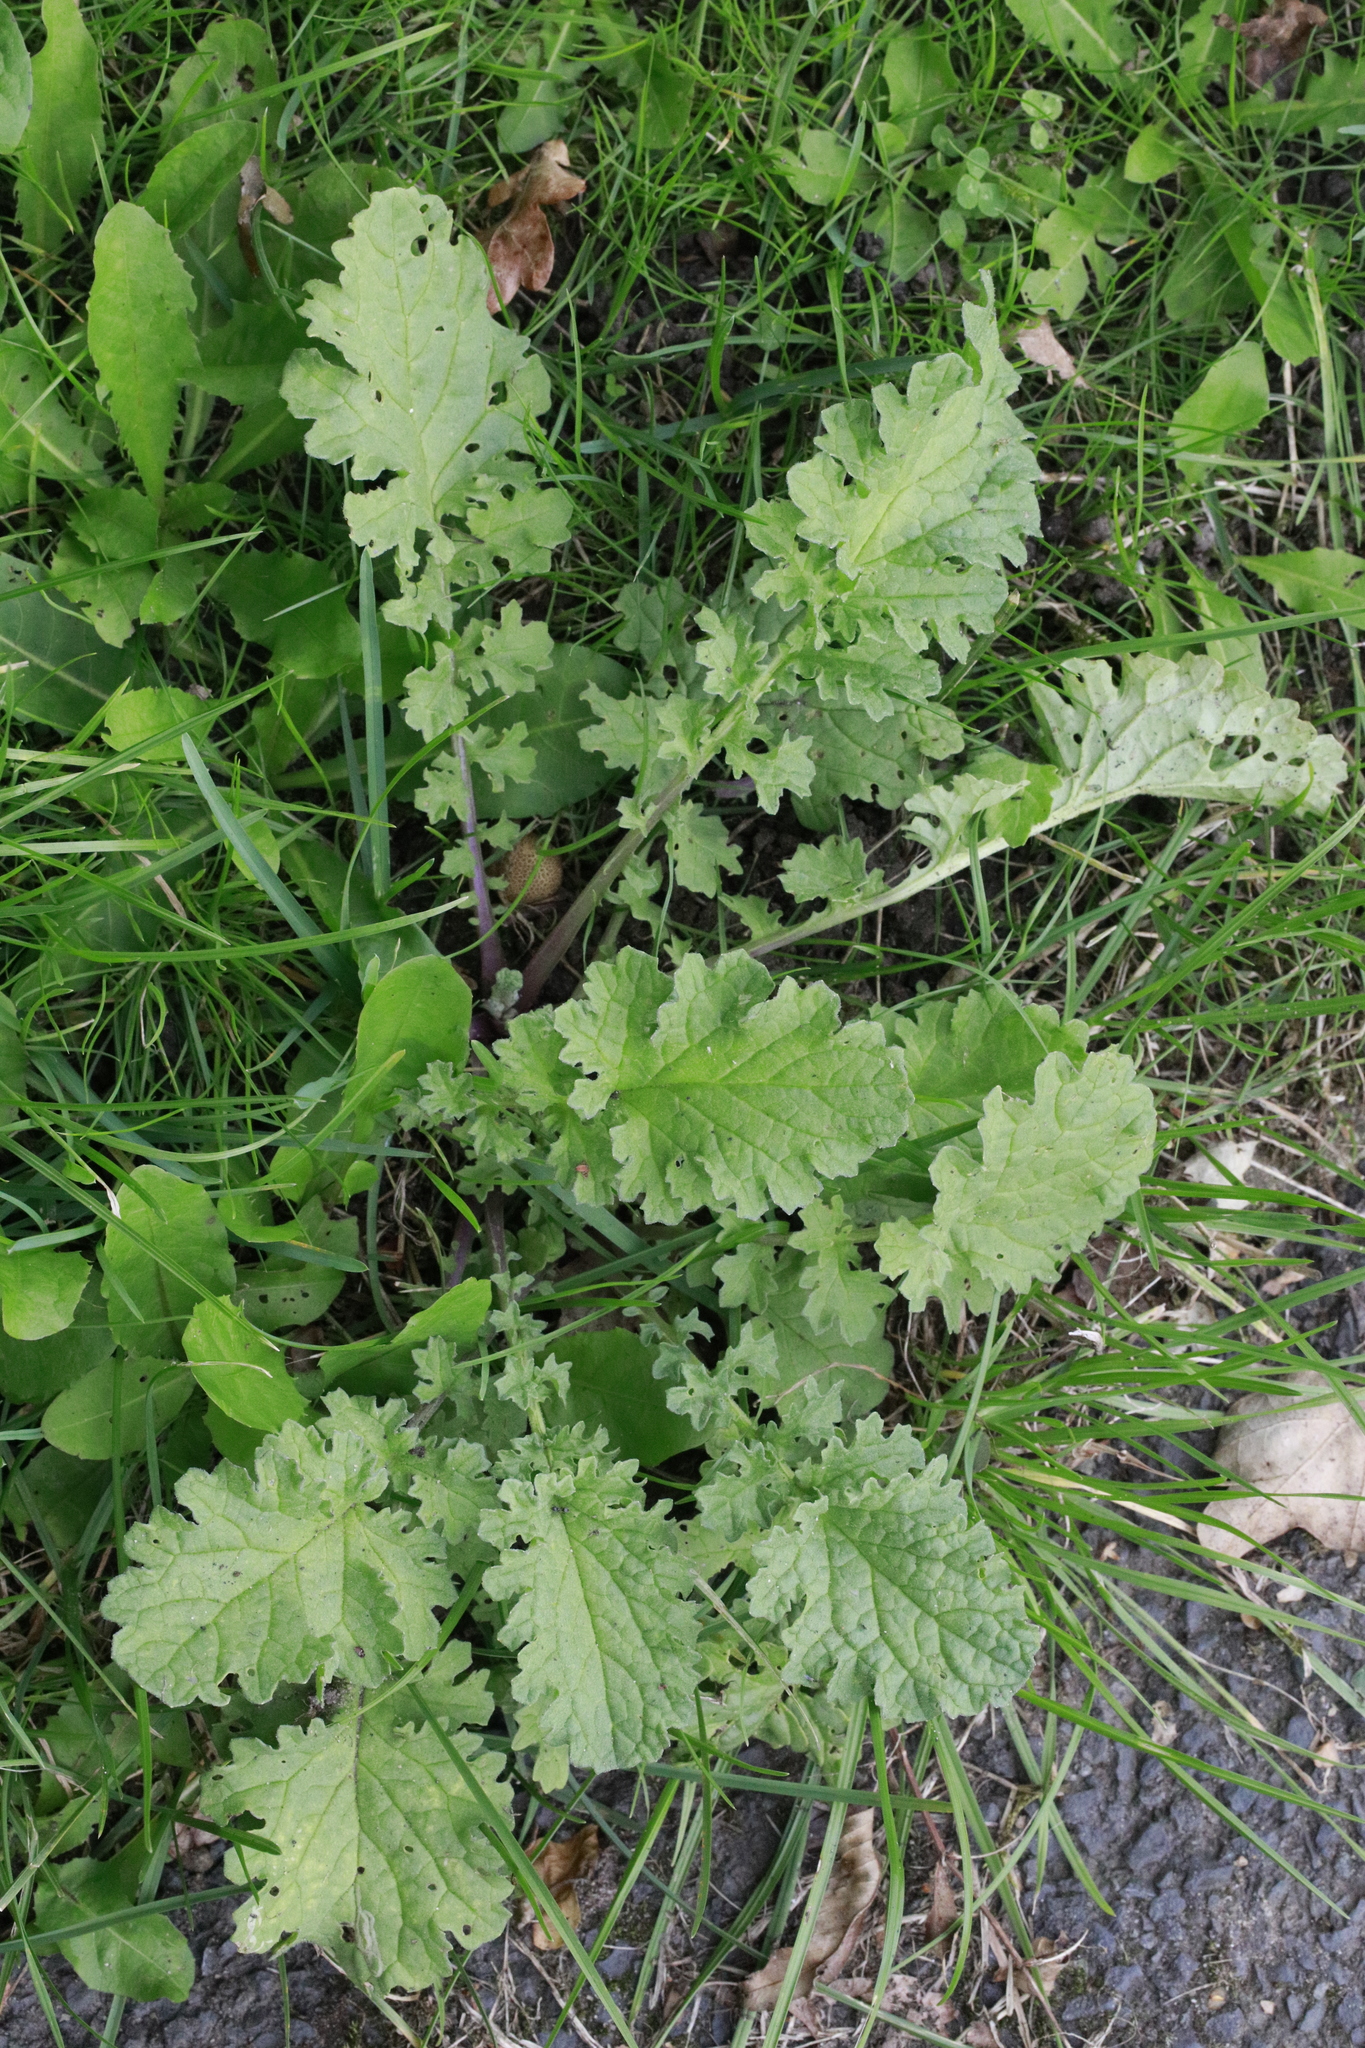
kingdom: Plantae
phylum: Tracheophyta
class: Magnoliopsida
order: Asterales
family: Asteraceae
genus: Jacobaea
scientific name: Jacobaea vulgaris
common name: Stinking willie
